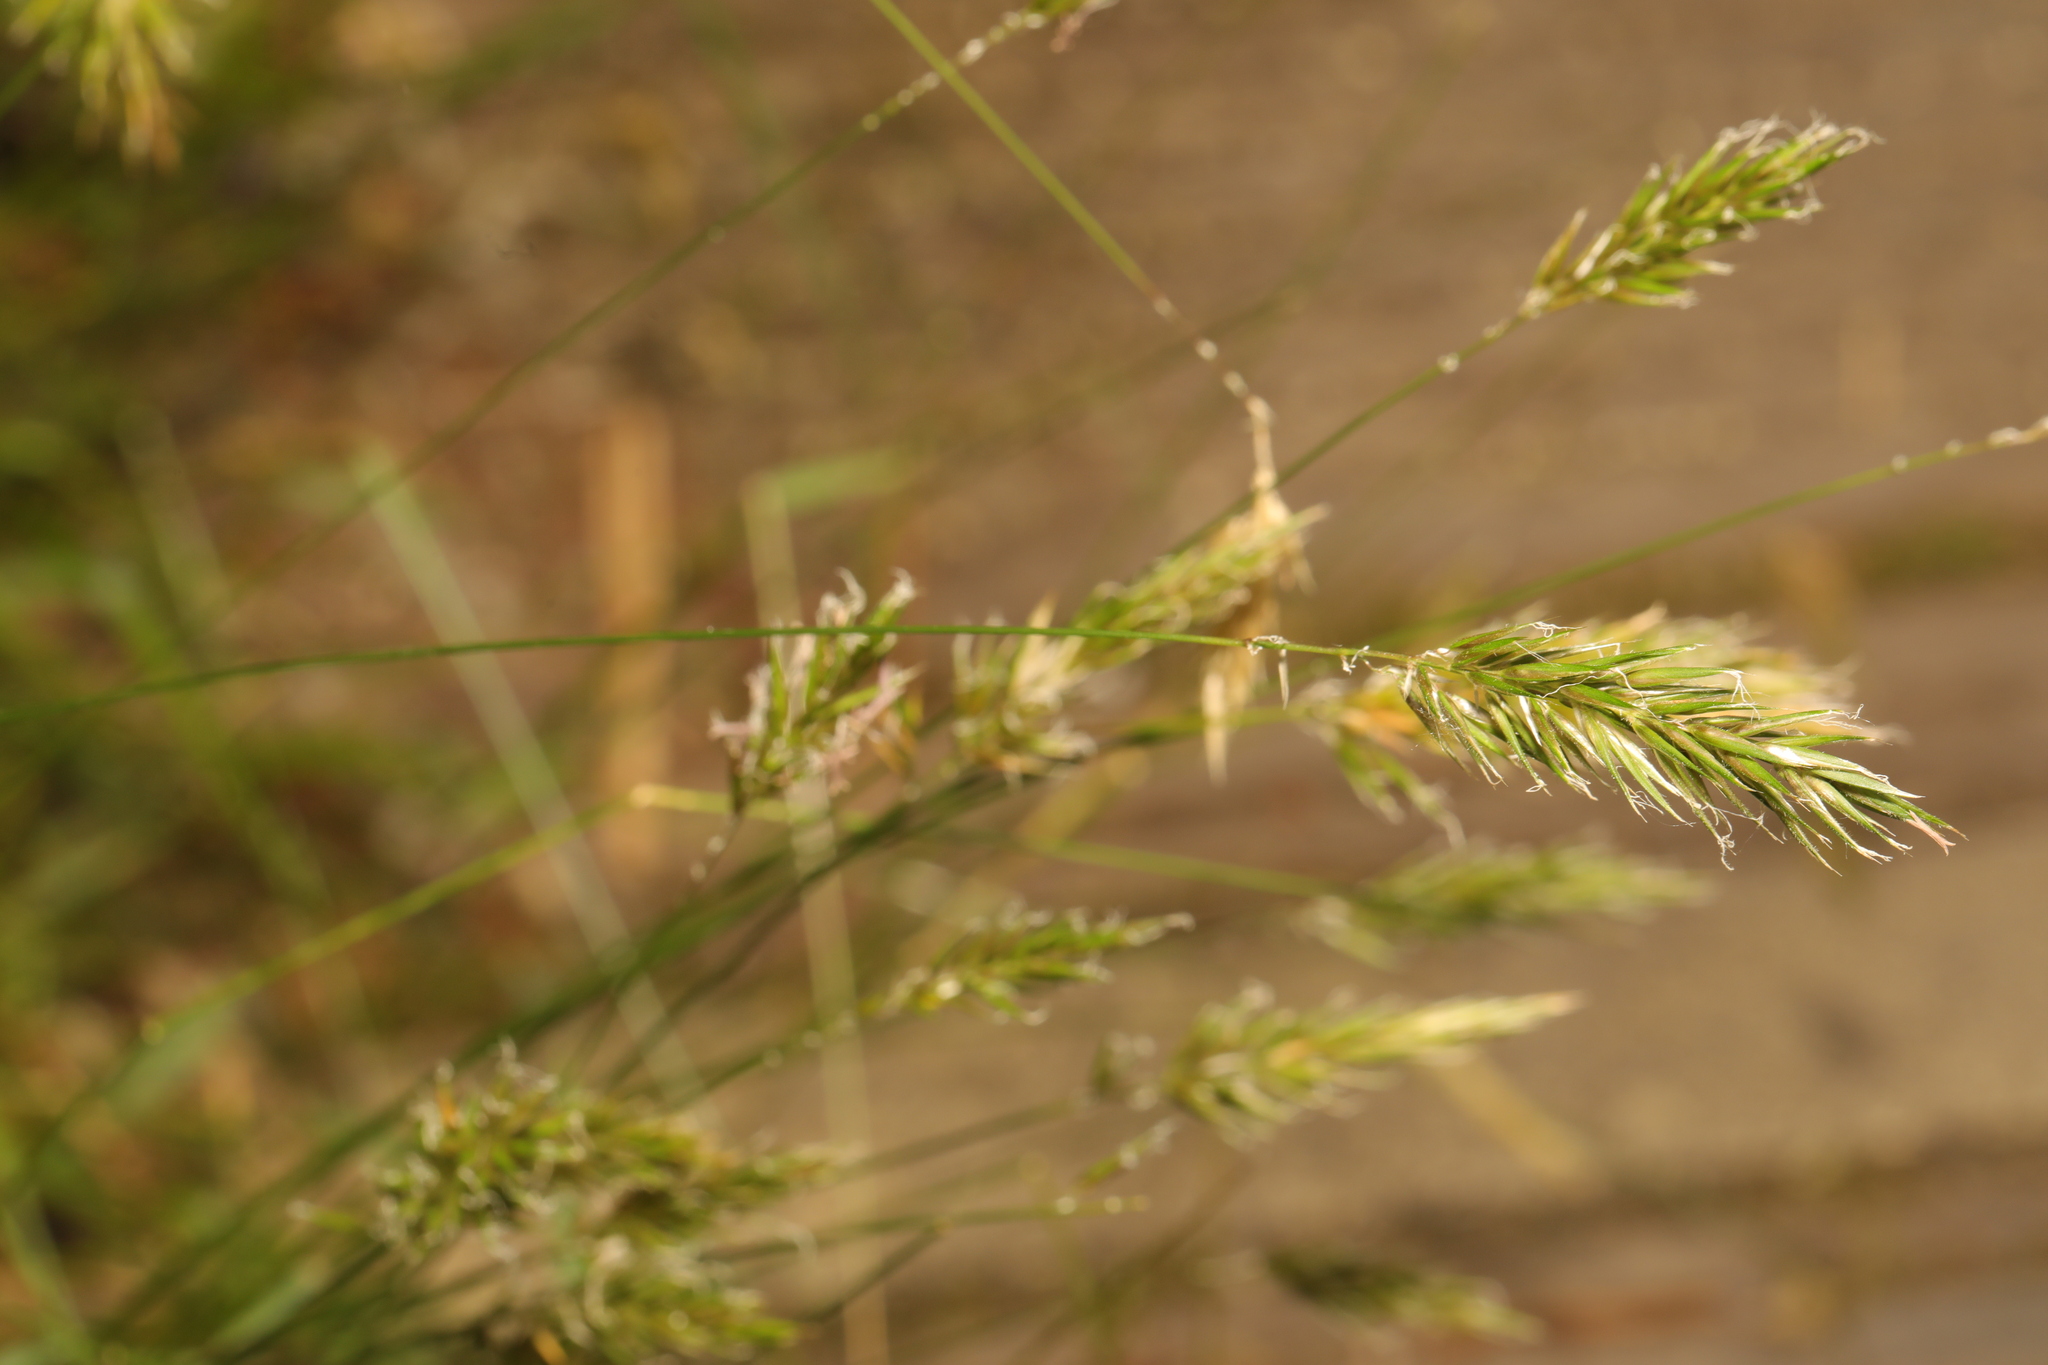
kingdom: Plantae
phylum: Tracheophyta
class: Liliopsida
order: Poales
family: Poaceae
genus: Anthoxanthum
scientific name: Anthoxanthum odoratum
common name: Sweet vernalgrass
